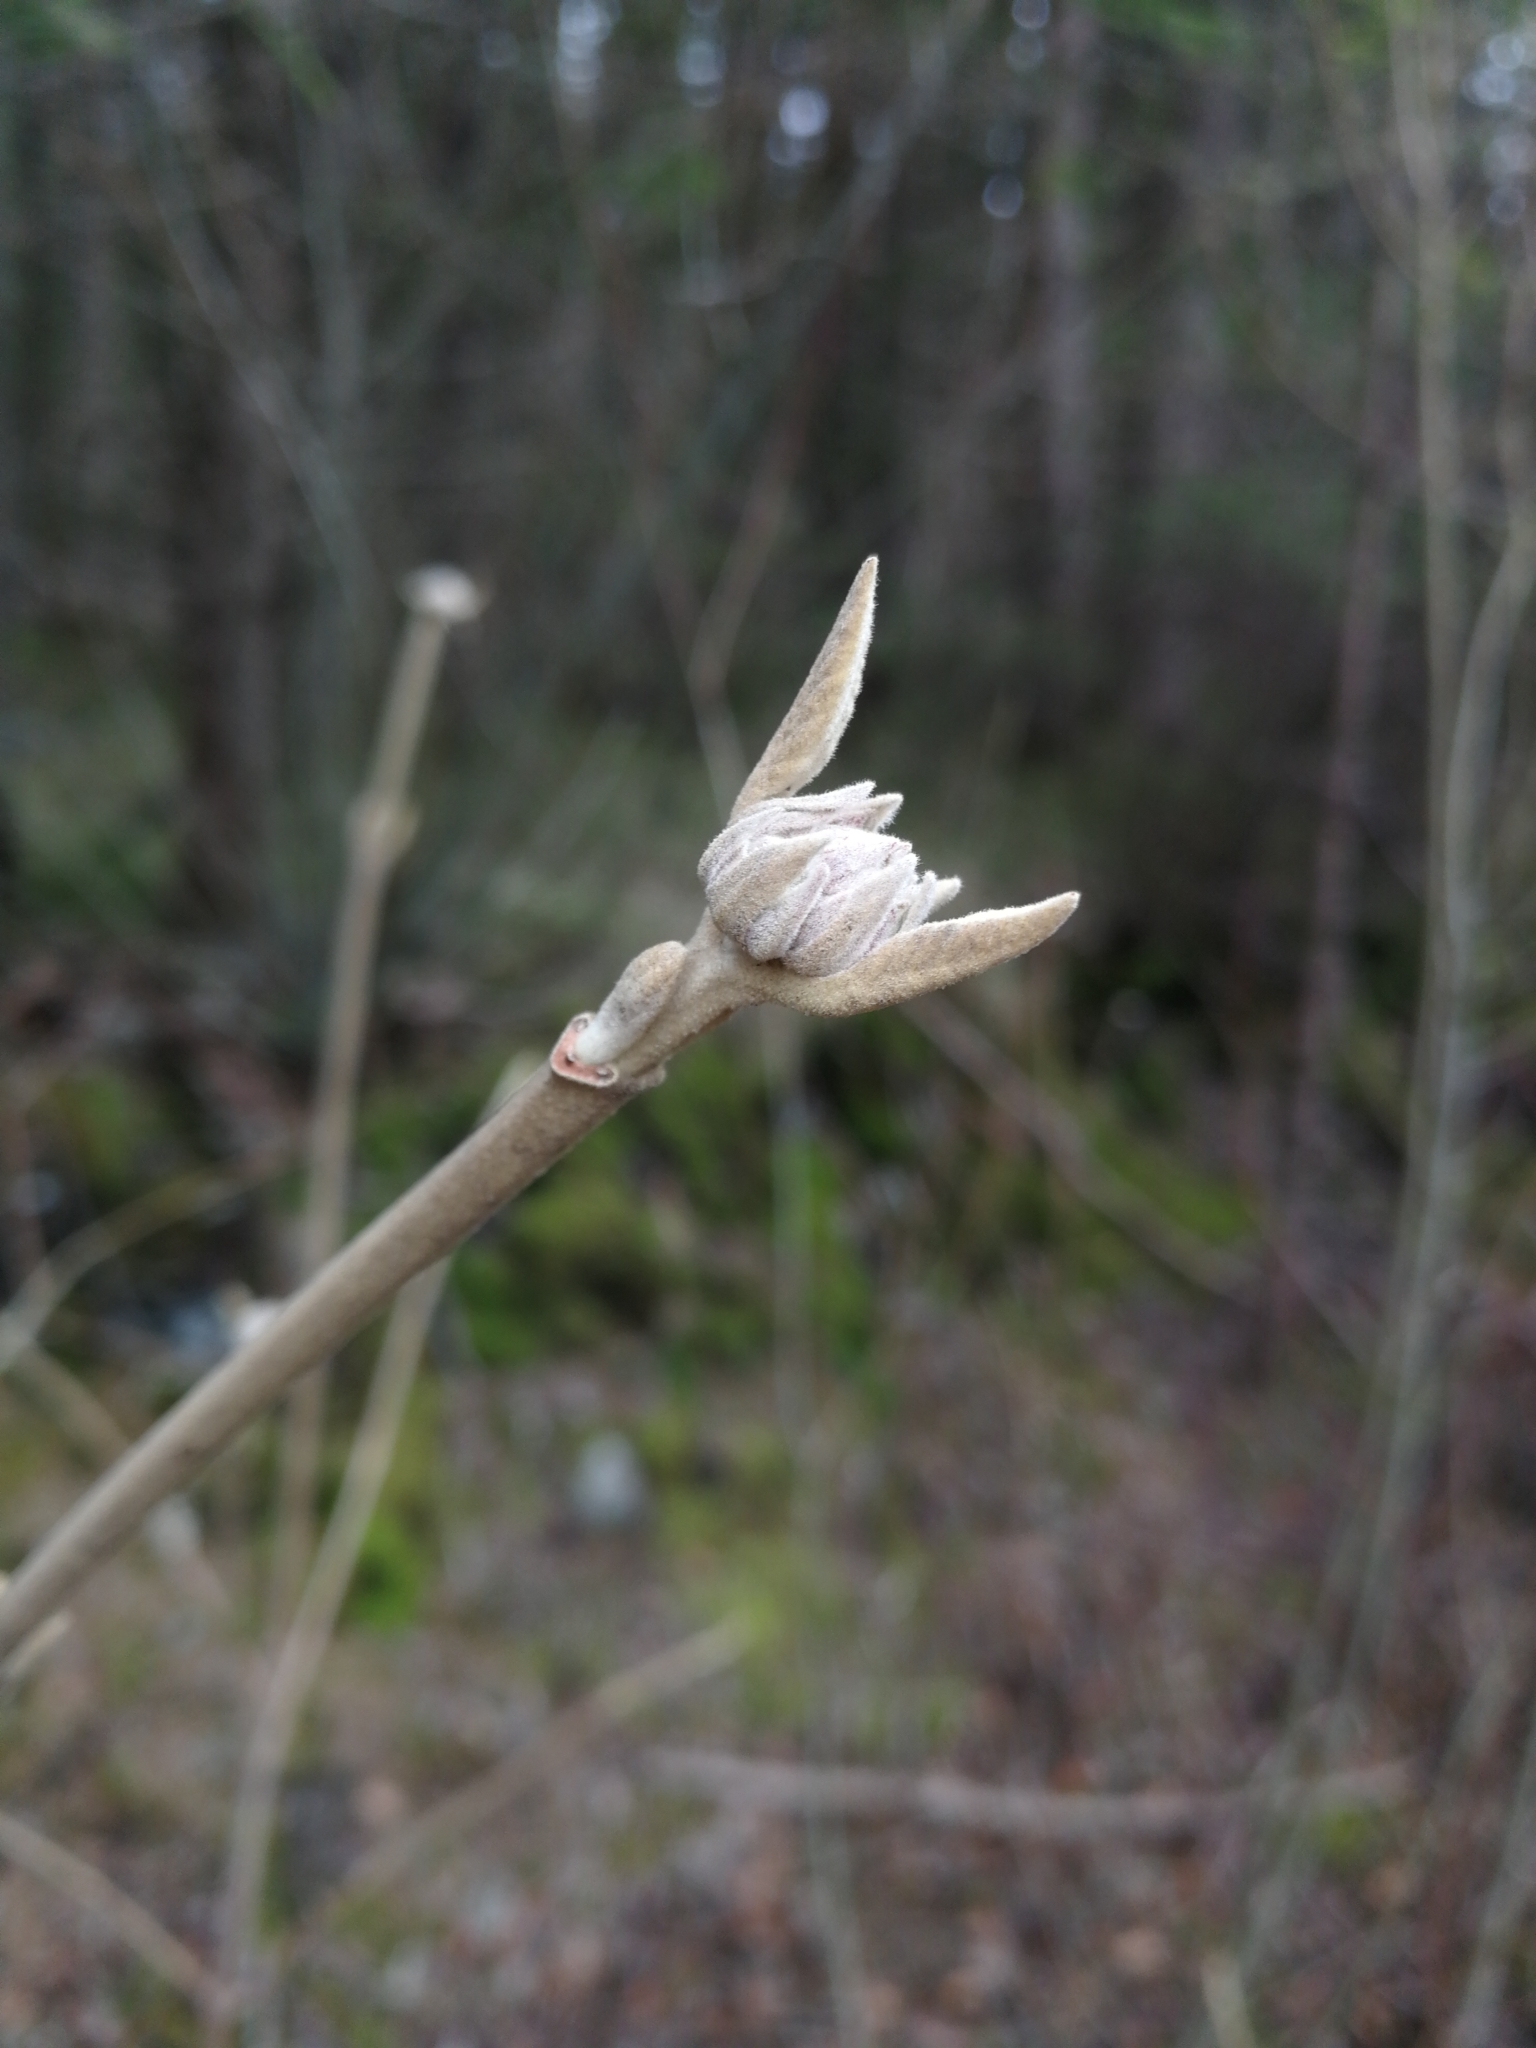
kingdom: Plantae
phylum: Tracheophyta
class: Magnoliopsida
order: Dipsacales
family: Viburnaceae
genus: Viburnum
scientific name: Viburnum lantana
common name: Wayfaring tree
